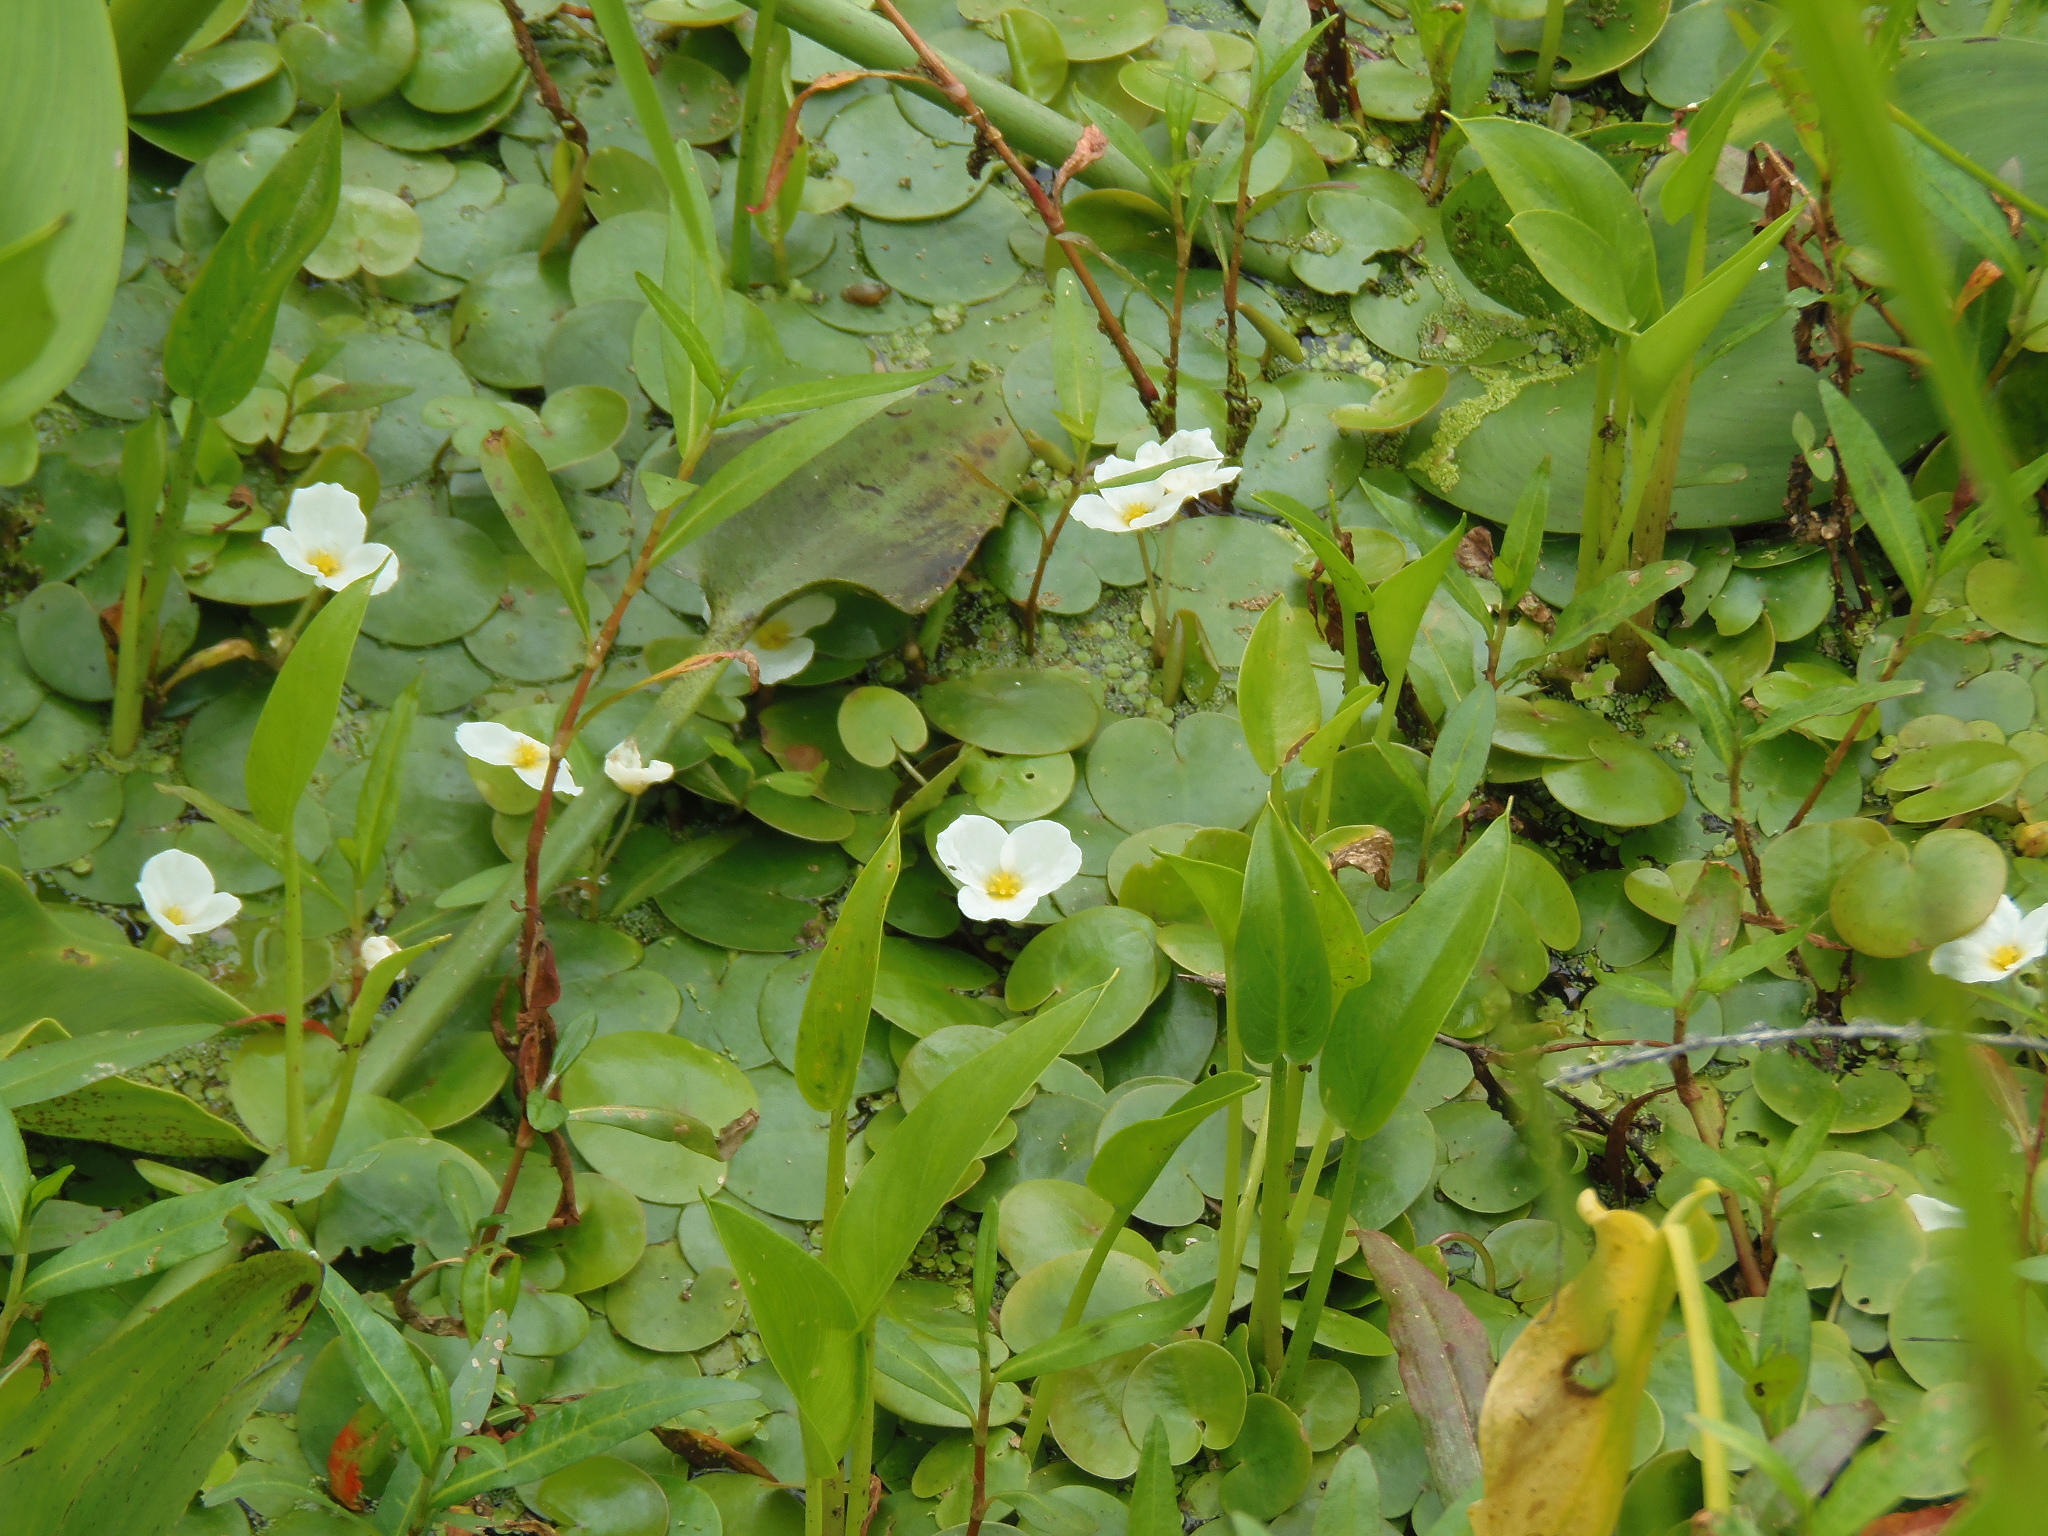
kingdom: Plantae
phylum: Tracheophyta
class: Liliopsida
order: Alismatales
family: Hydrocharitaceae
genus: Hydrocharis
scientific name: Hydrocharis morsus-ranae
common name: Frogbit
